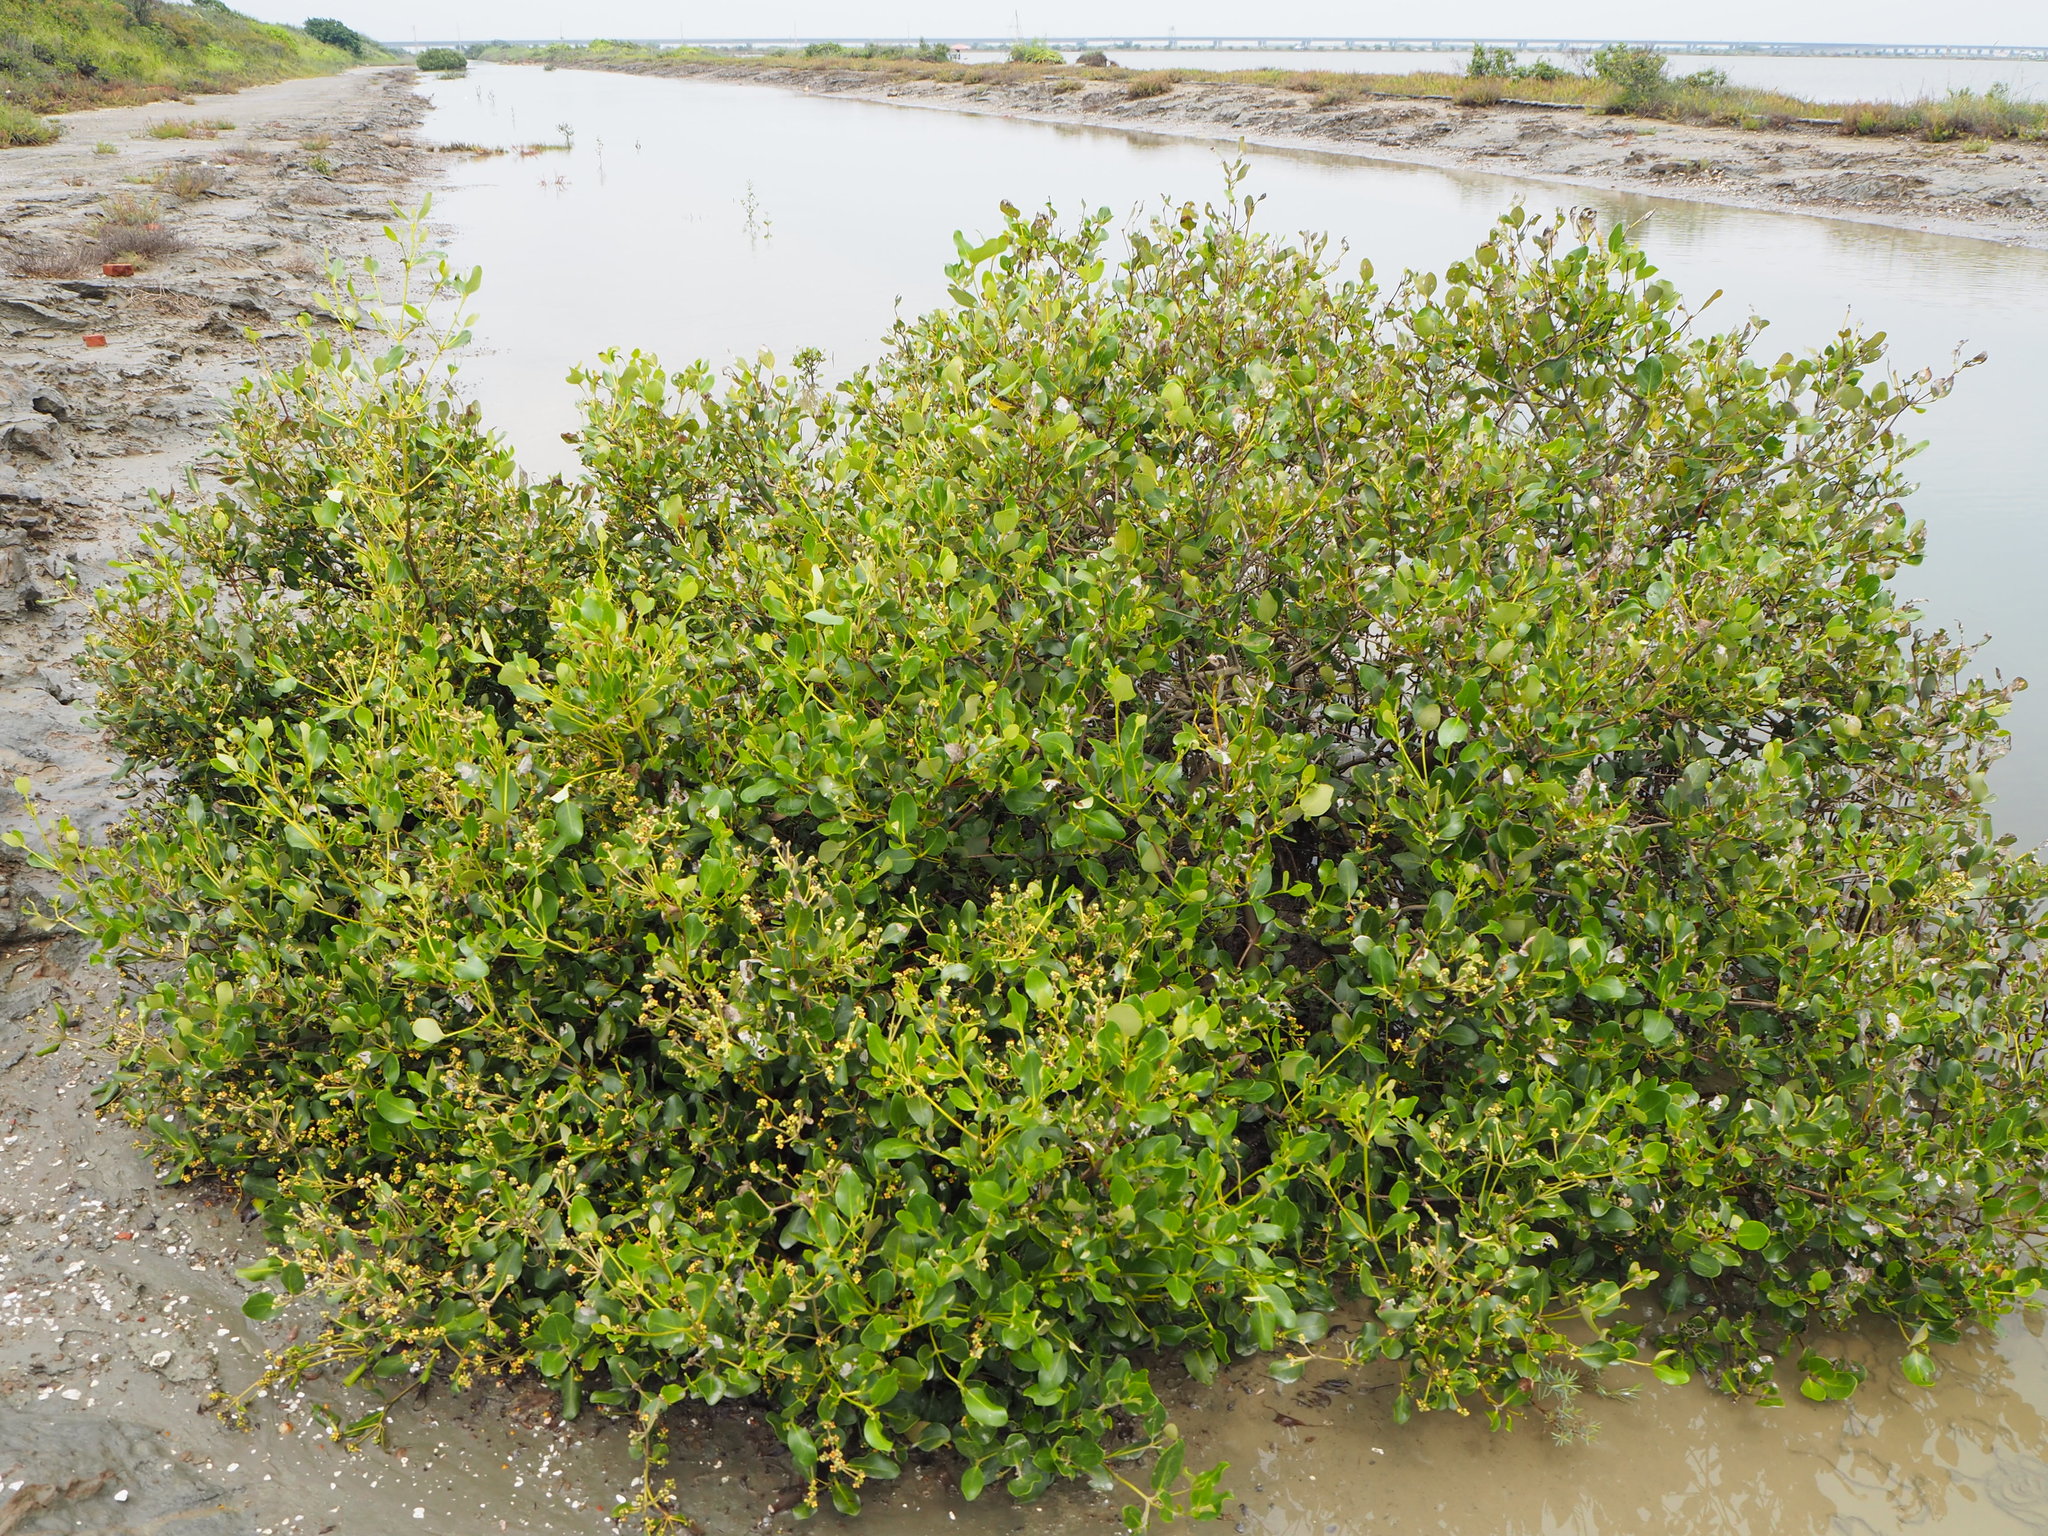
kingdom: Plantae
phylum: Tracheophyta
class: Magnoliopsida
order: Lamiales
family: Acanthaceae
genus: Avicennia
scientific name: Avicennia marina
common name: Gray mangrove
